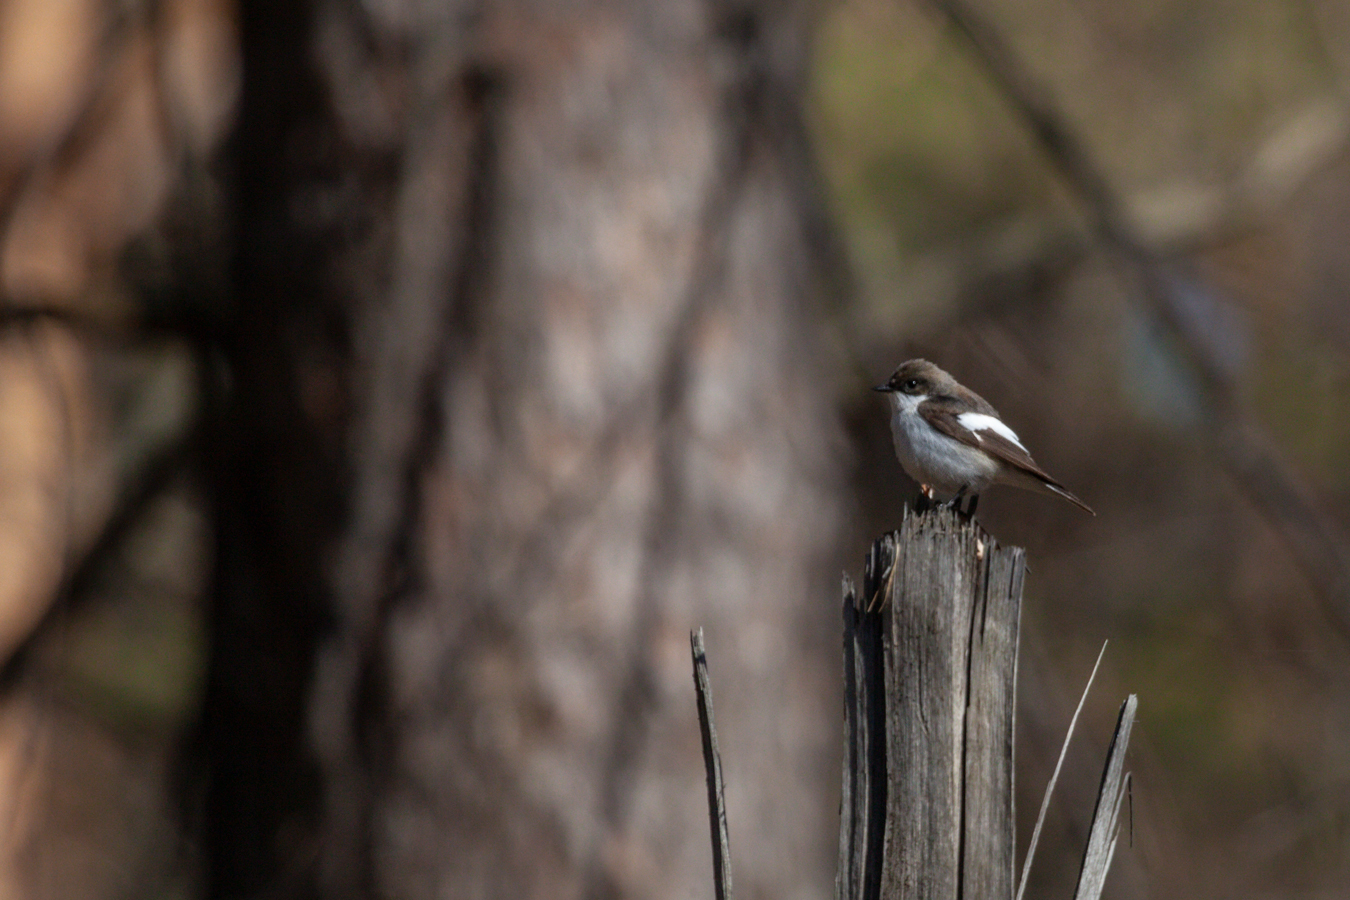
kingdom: Animalia
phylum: Chordata
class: Aves
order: Passeriformes
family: Muscicapidae
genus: Ficedula
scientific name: Ficedula hypoleuca
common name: European pied flycatcher
